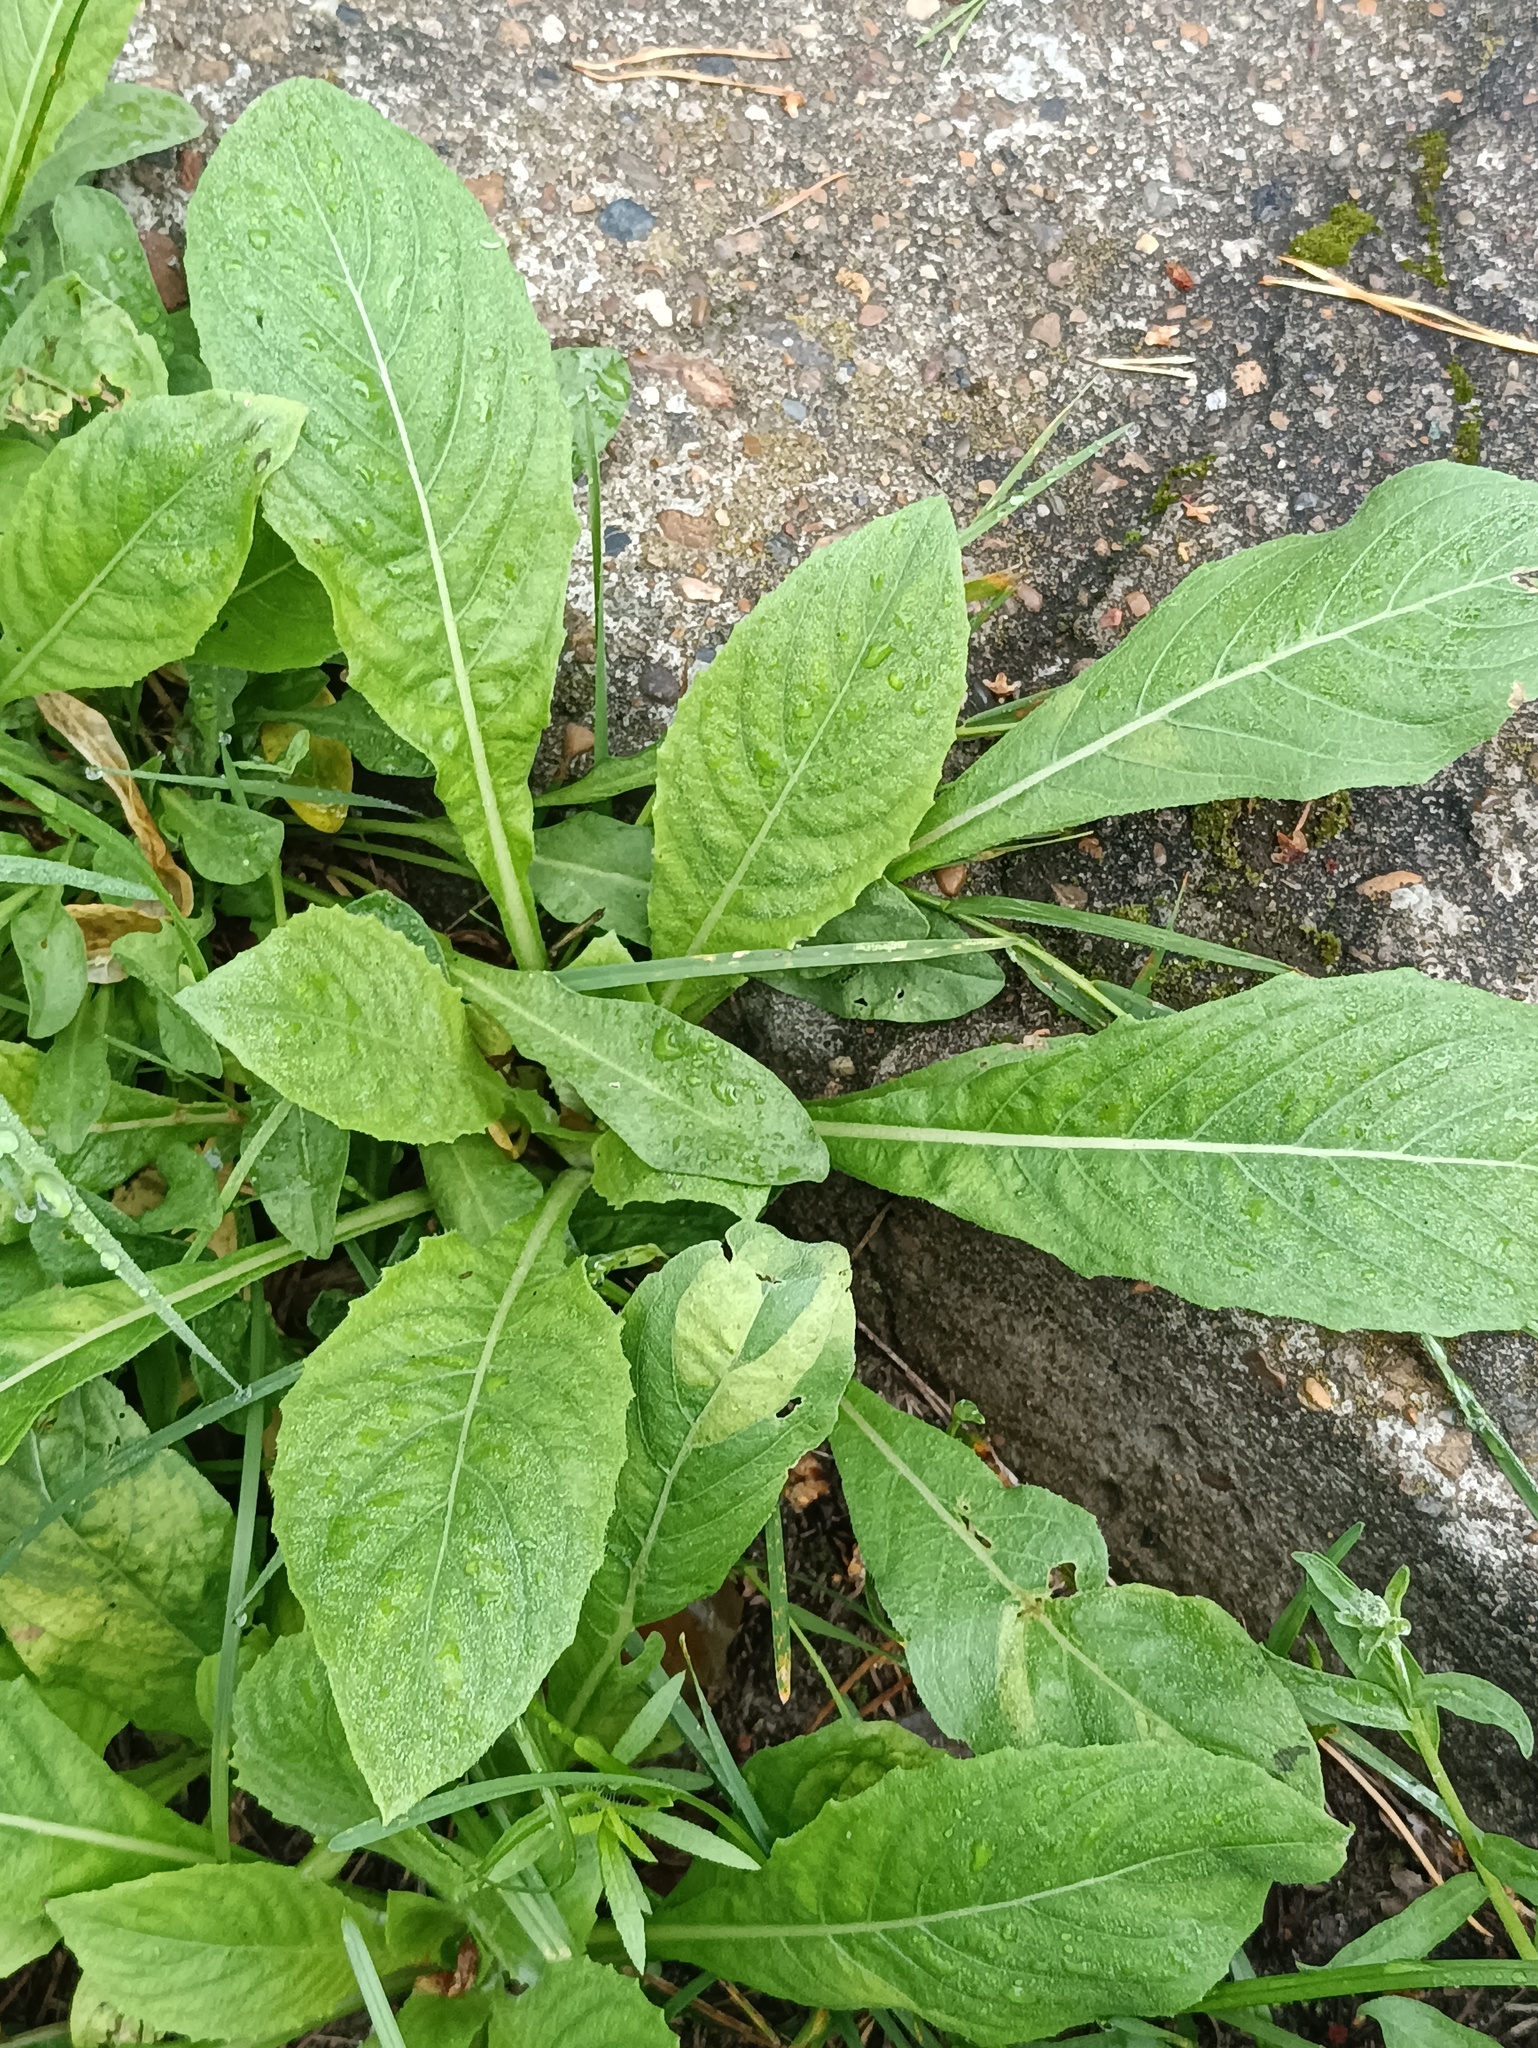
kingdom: Plantae
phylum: Tracheophyta
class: Magnoliopsida
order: Myrtales
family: Onagraceae
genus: Oenothera
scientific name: Oenothera
